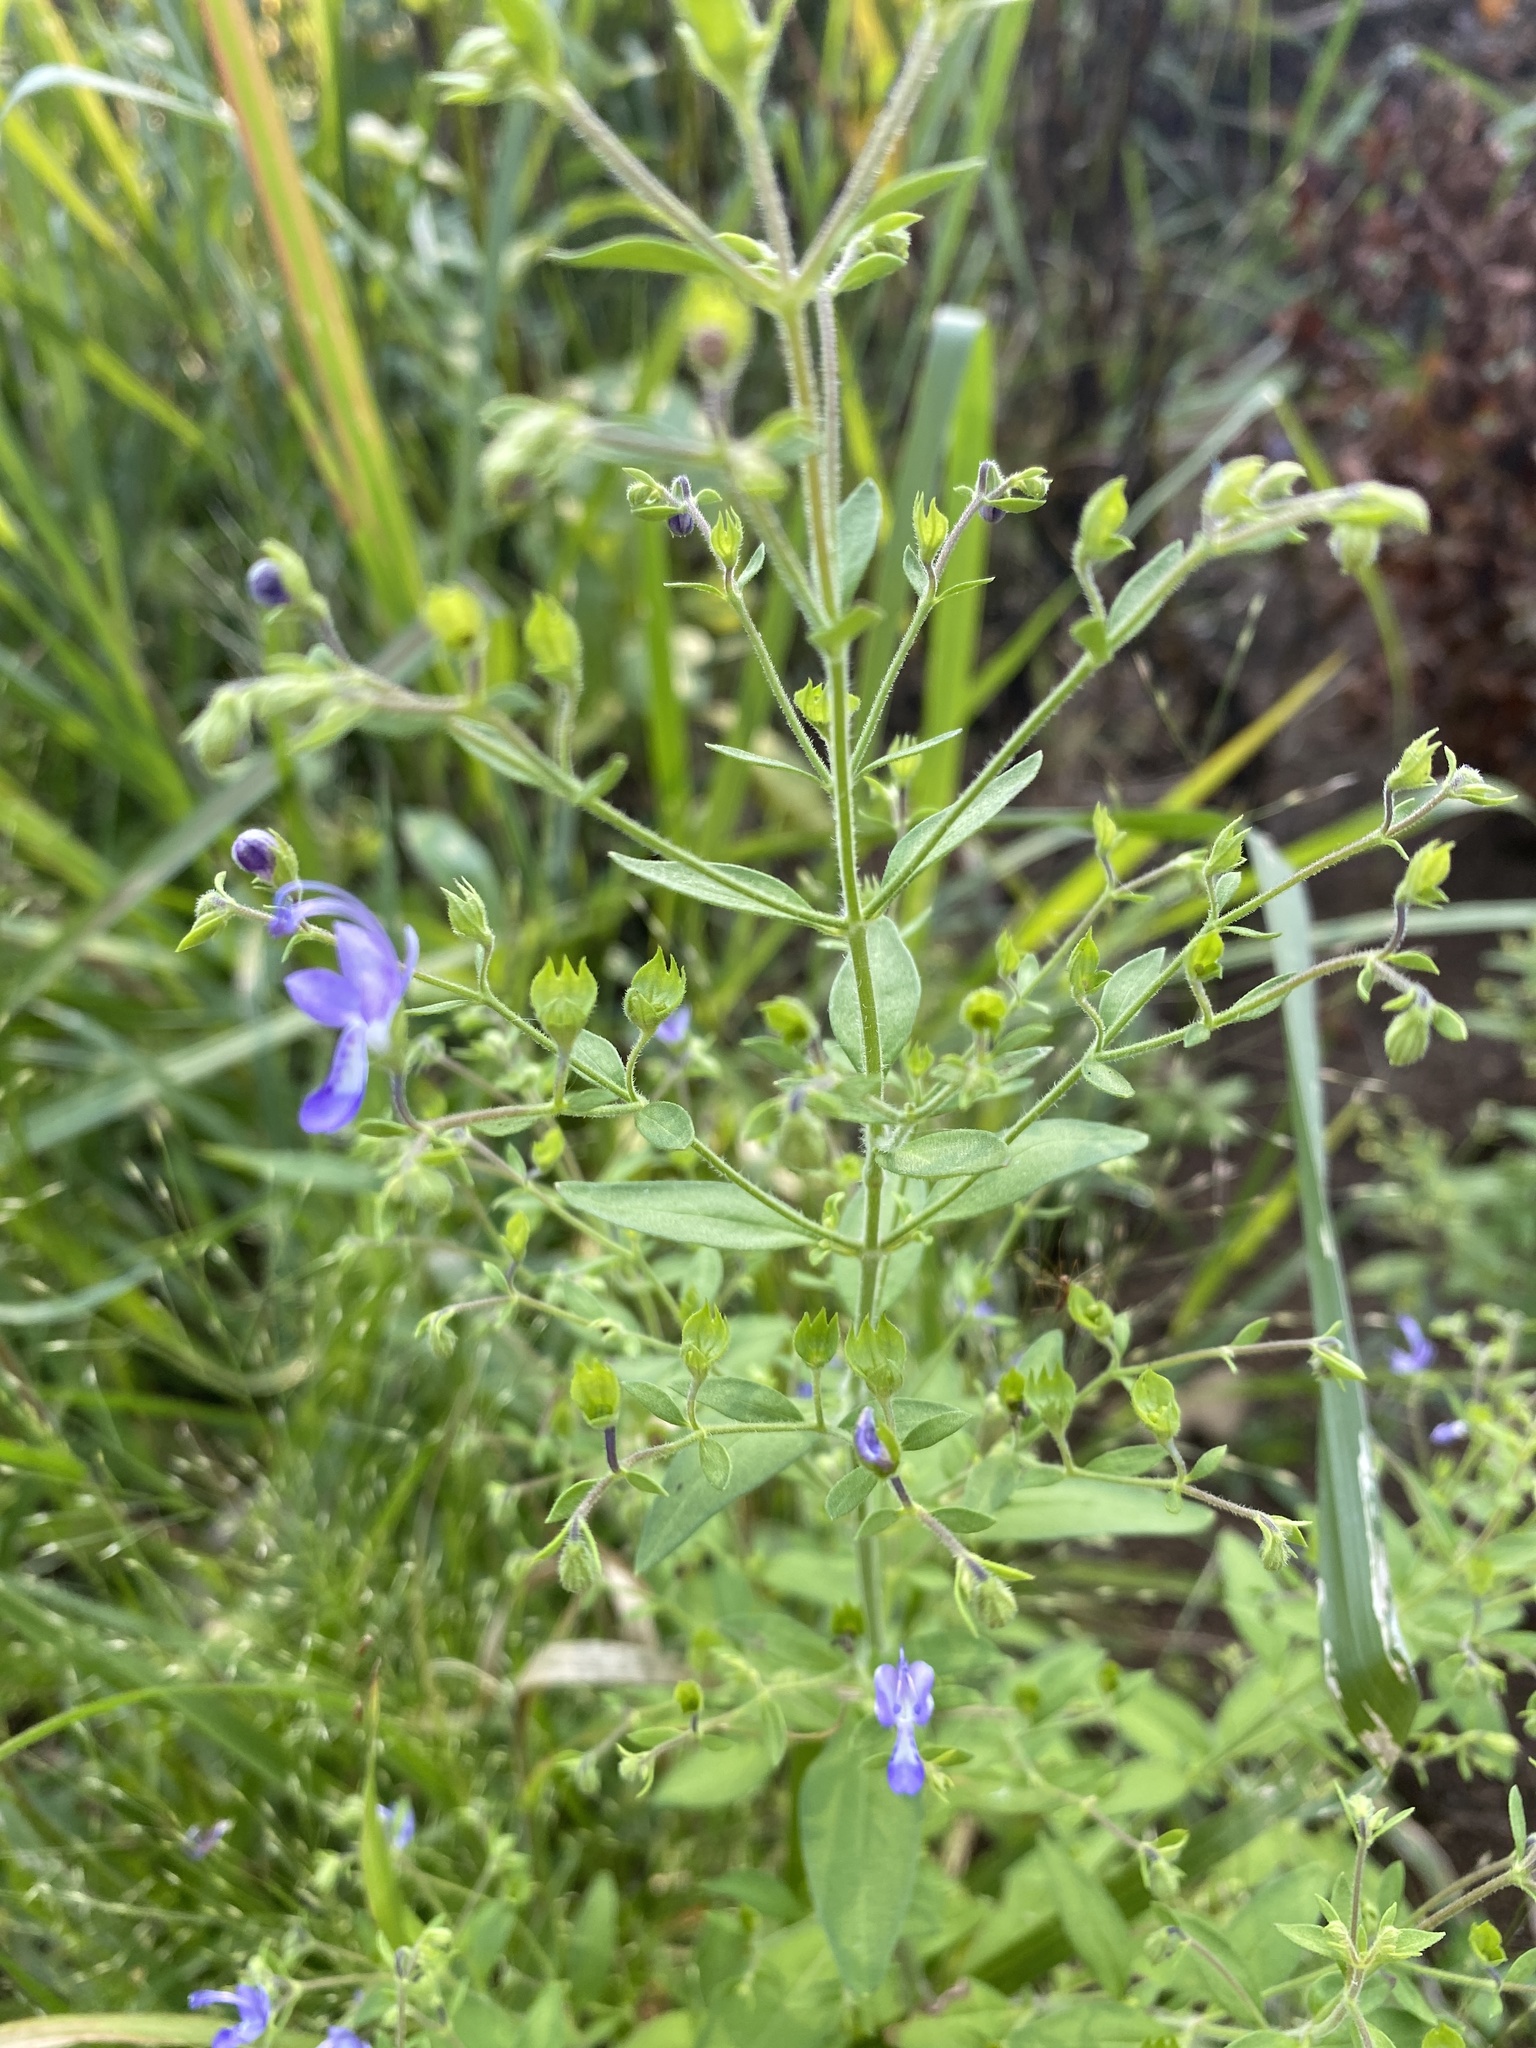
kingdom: Plantae
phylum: Tracheophyta
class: Magnoliopsida
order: Lamiales
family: Lamiaceae
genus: Trichostema
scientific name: Trichostema dichotomum
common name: Bastard pennyroyal
